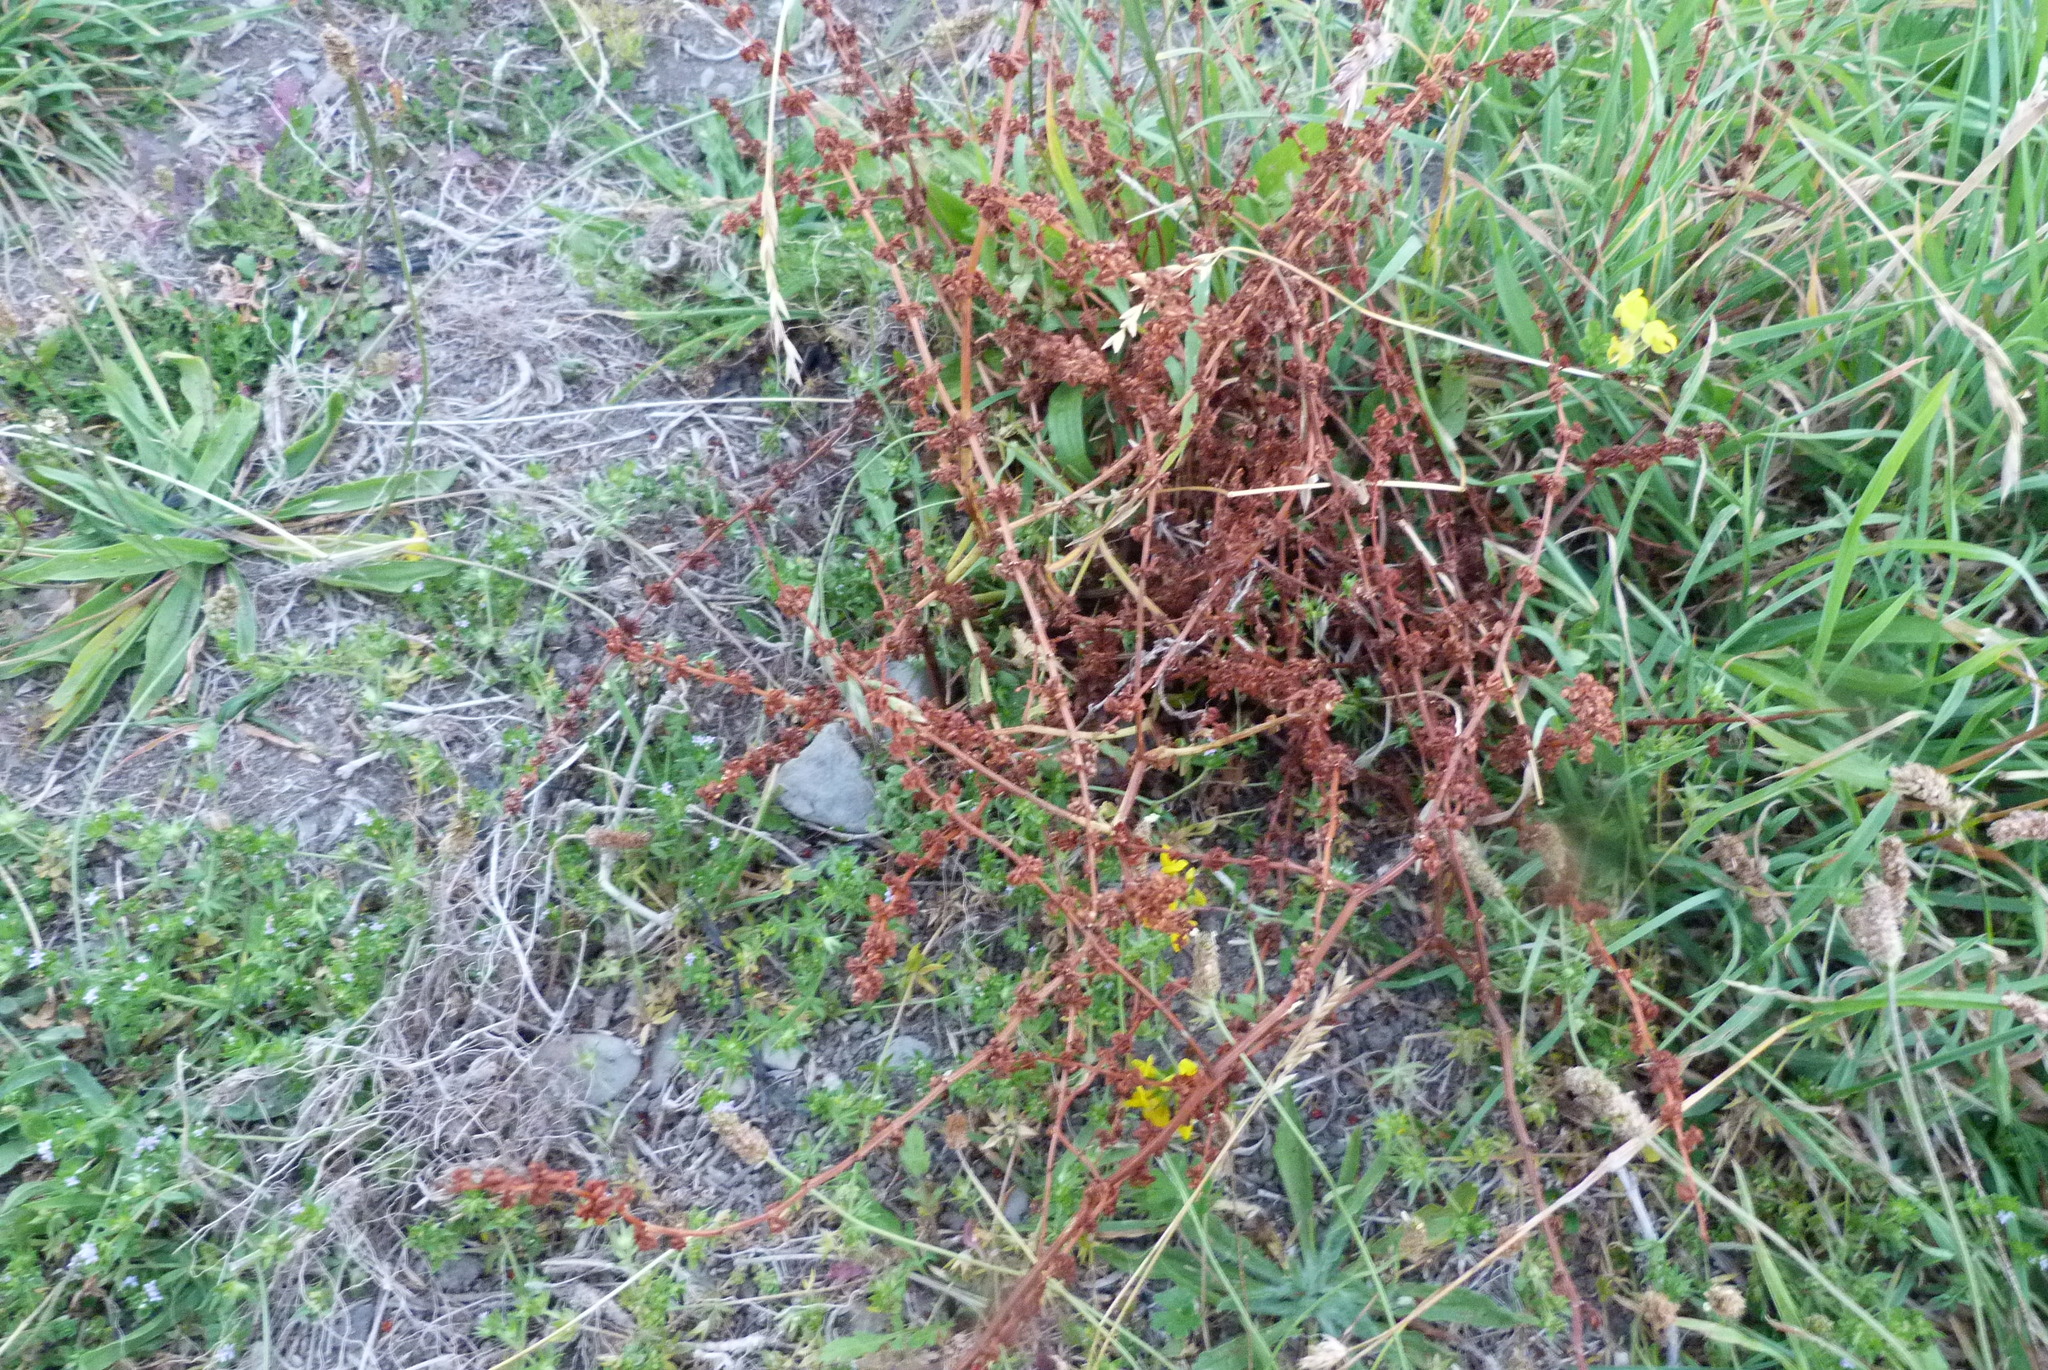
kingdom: Plantae
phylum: Tracheophyta
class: Magnoliopsida
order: Caryophyllales
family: Polygonaceae
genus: Rumex
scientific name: Rumex pulcher
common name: Fiddle dock
